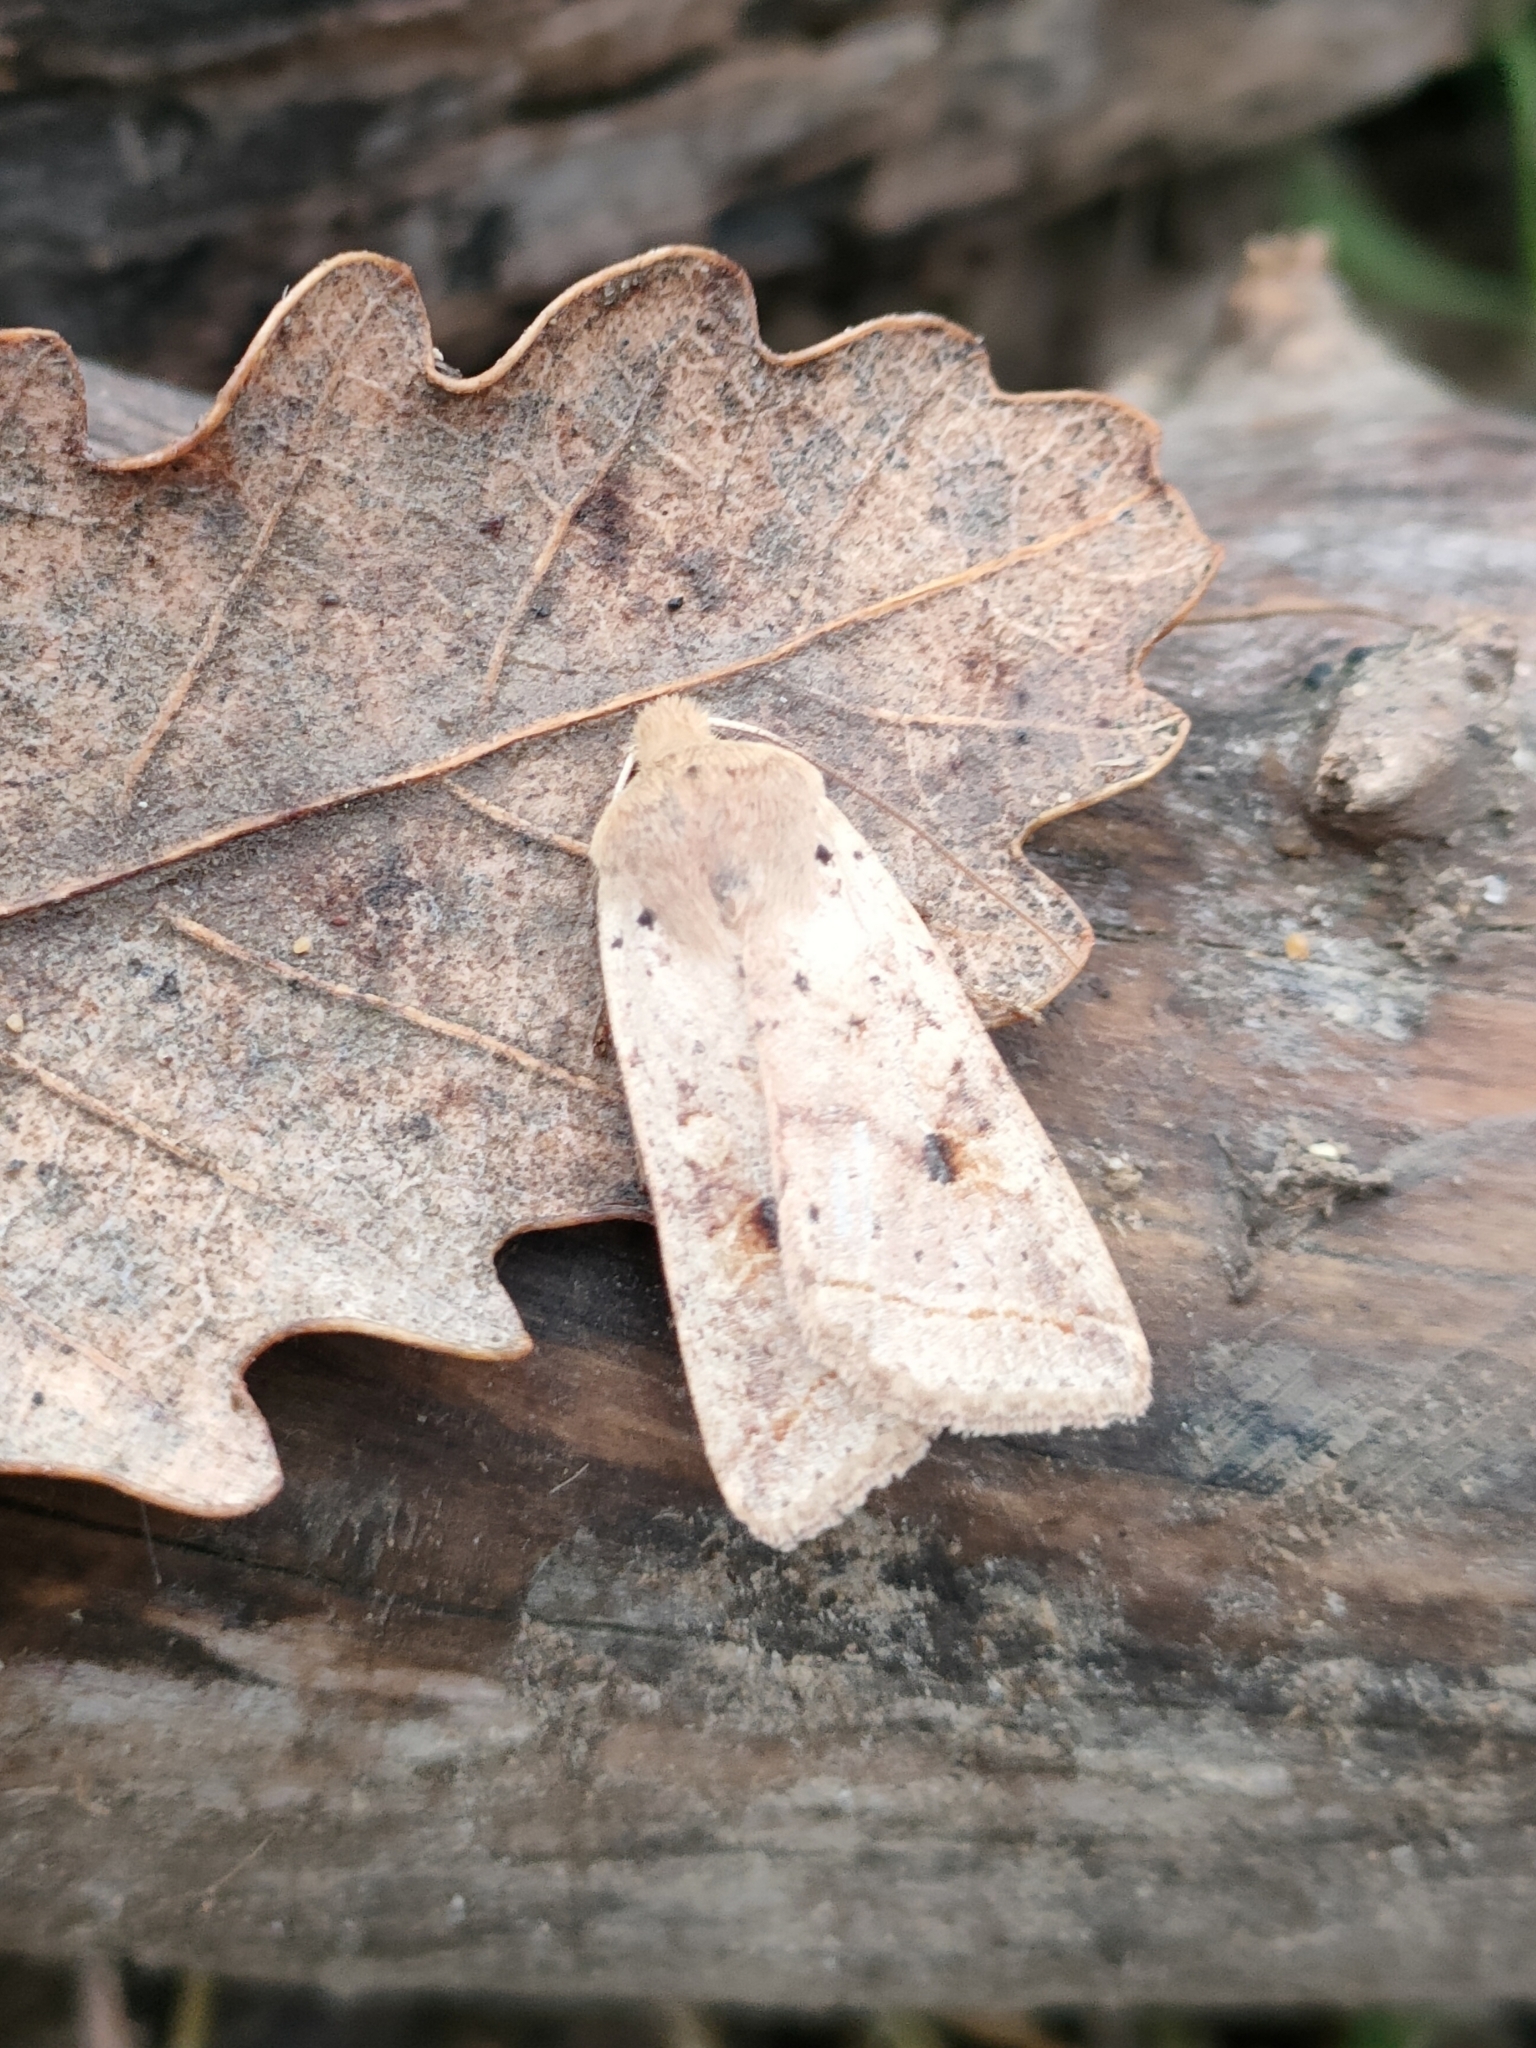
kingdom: Animalia
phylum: Arthropoda
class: Insecta
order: Lepidoptera
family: Noctuidae
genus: Agrochola
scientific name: Agrochola macilenta
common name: Yellow-line quaker
